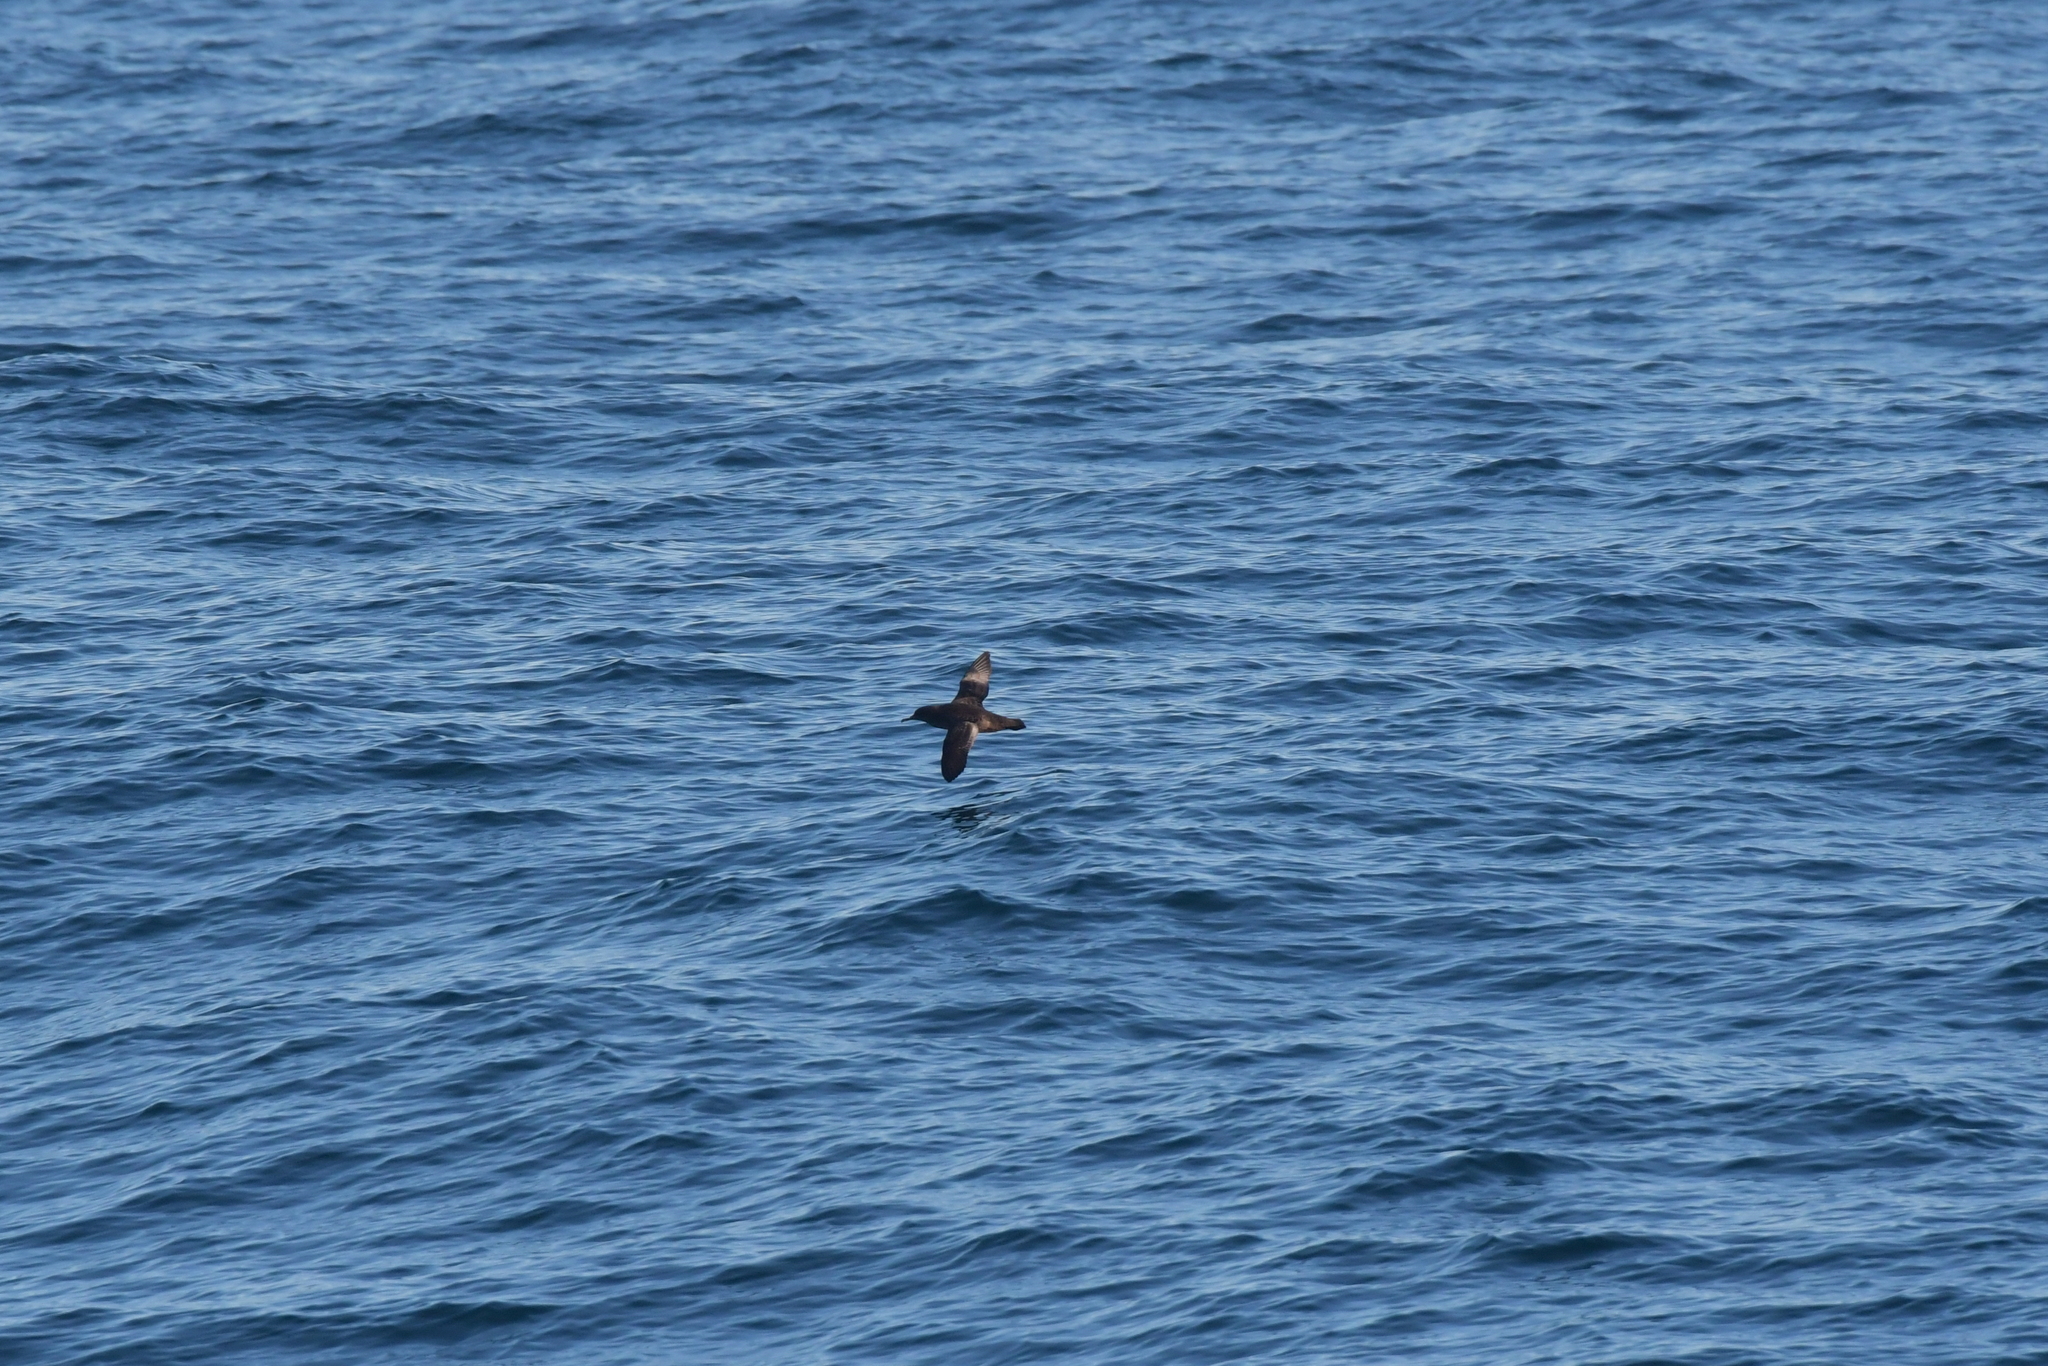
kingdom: Animalia
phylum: Chordata
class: Aves
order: Procellariiformes
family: Procellariidae
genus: Puffinus
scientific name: Puffinus griseus
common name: Sooty shearwater
